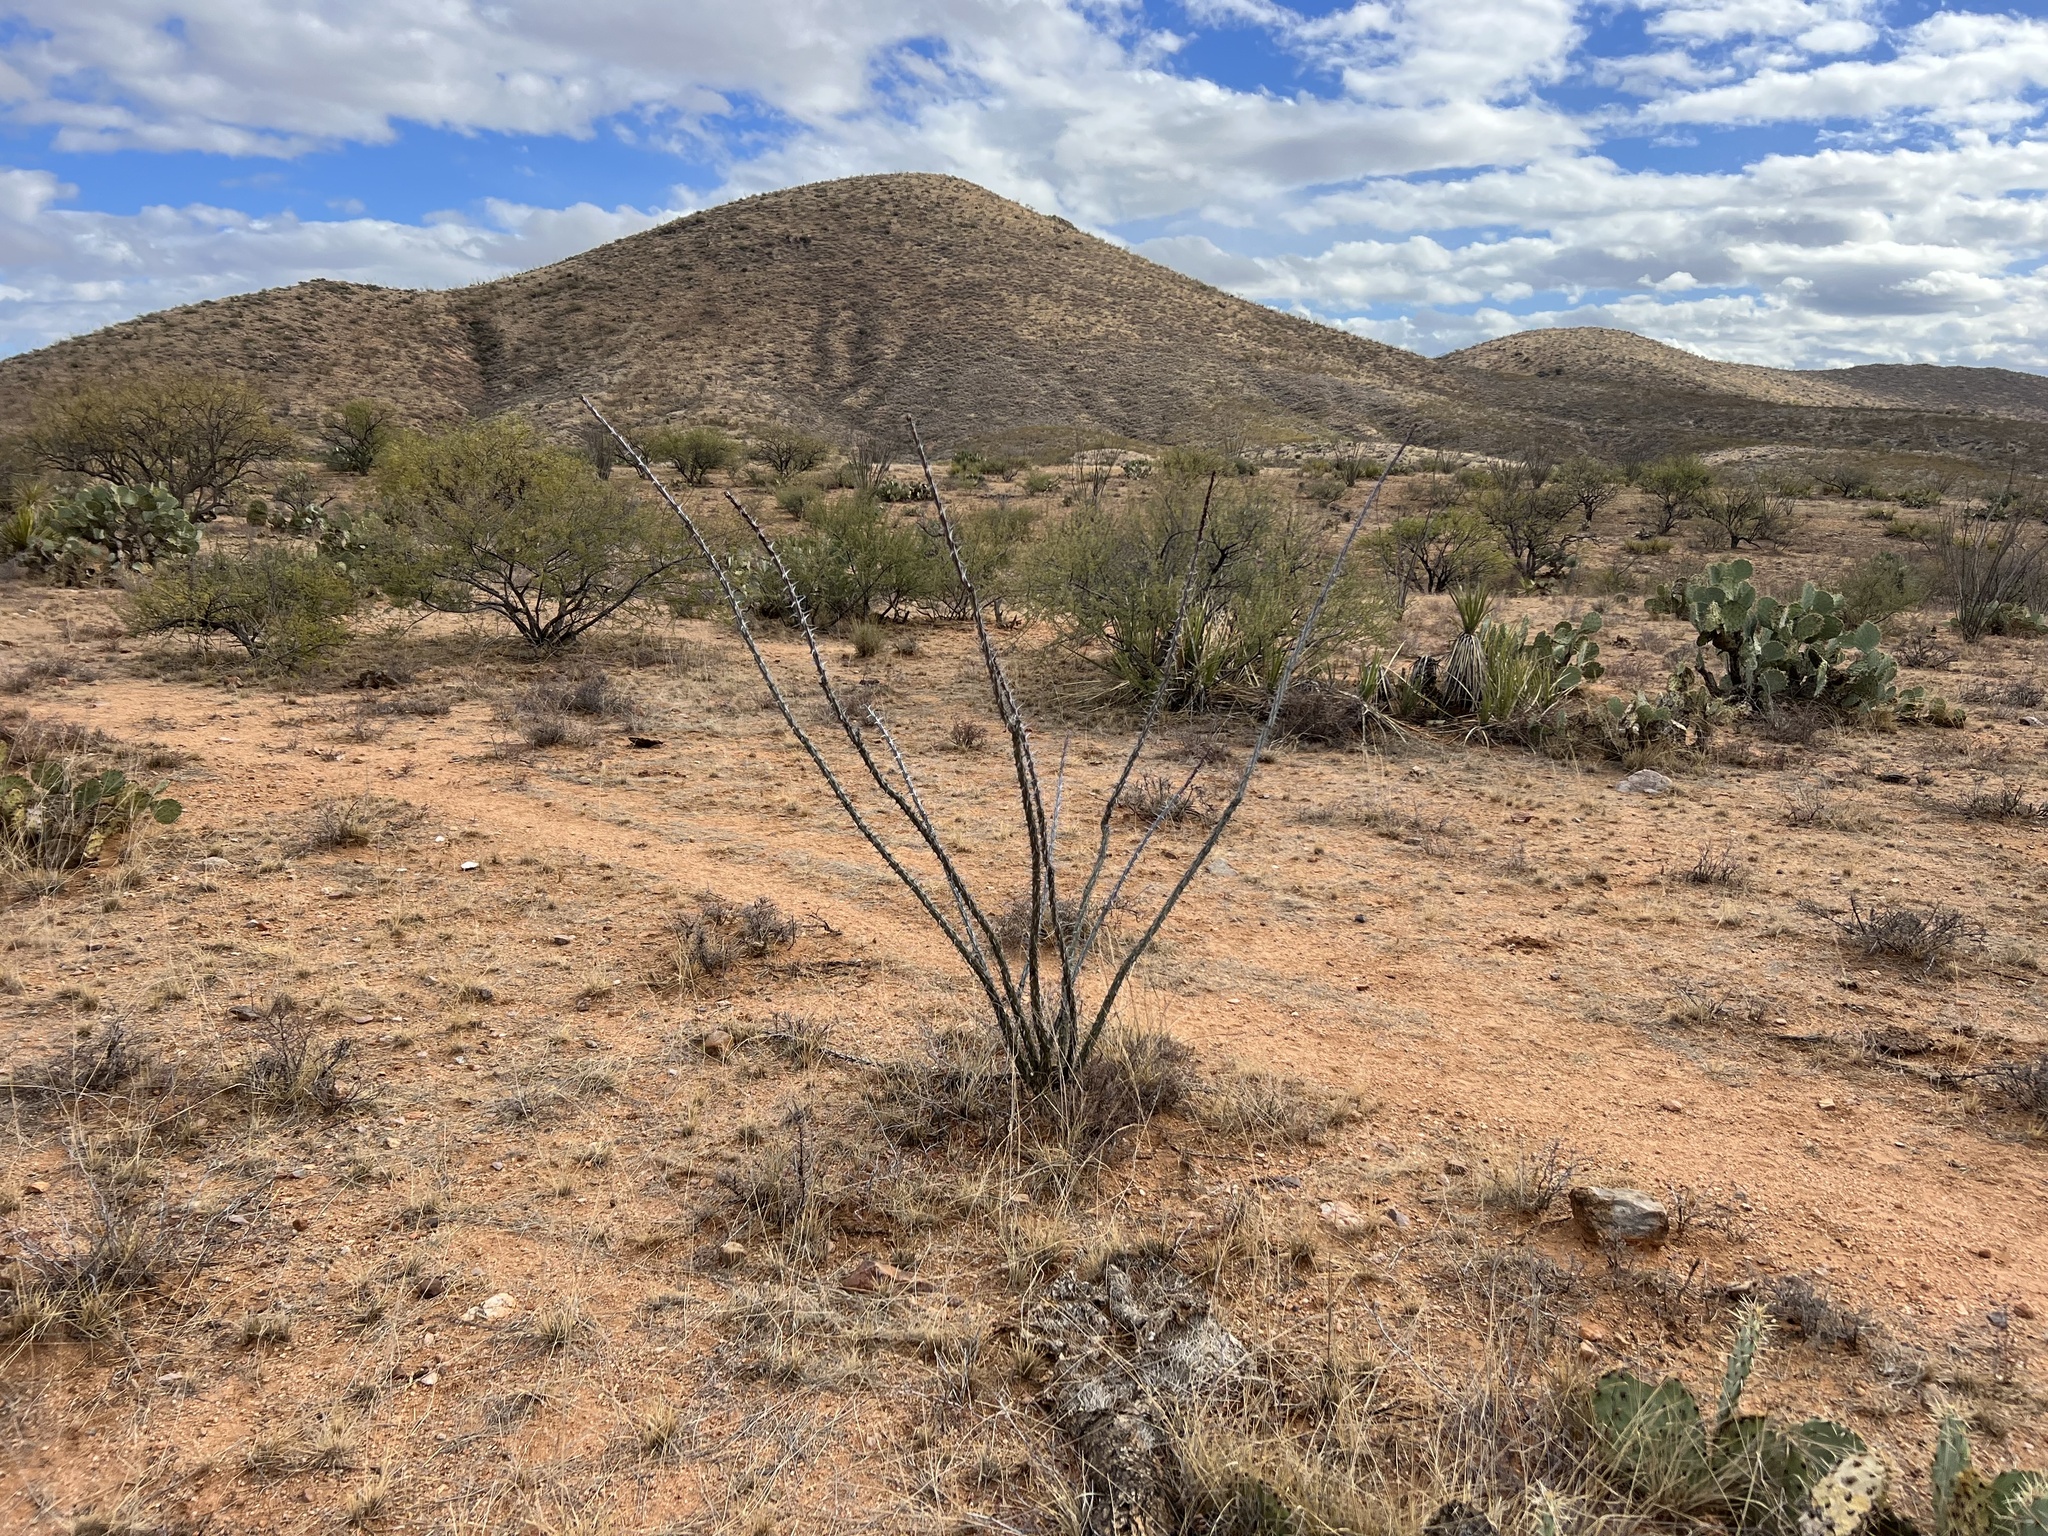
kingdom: Plantae
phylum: Tracheophyta
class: Magnoliopsida
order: Ericales
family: Fouquieriaceae
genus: Fouquieria
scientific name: Fouquieria splendens
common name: Vine-cactus
